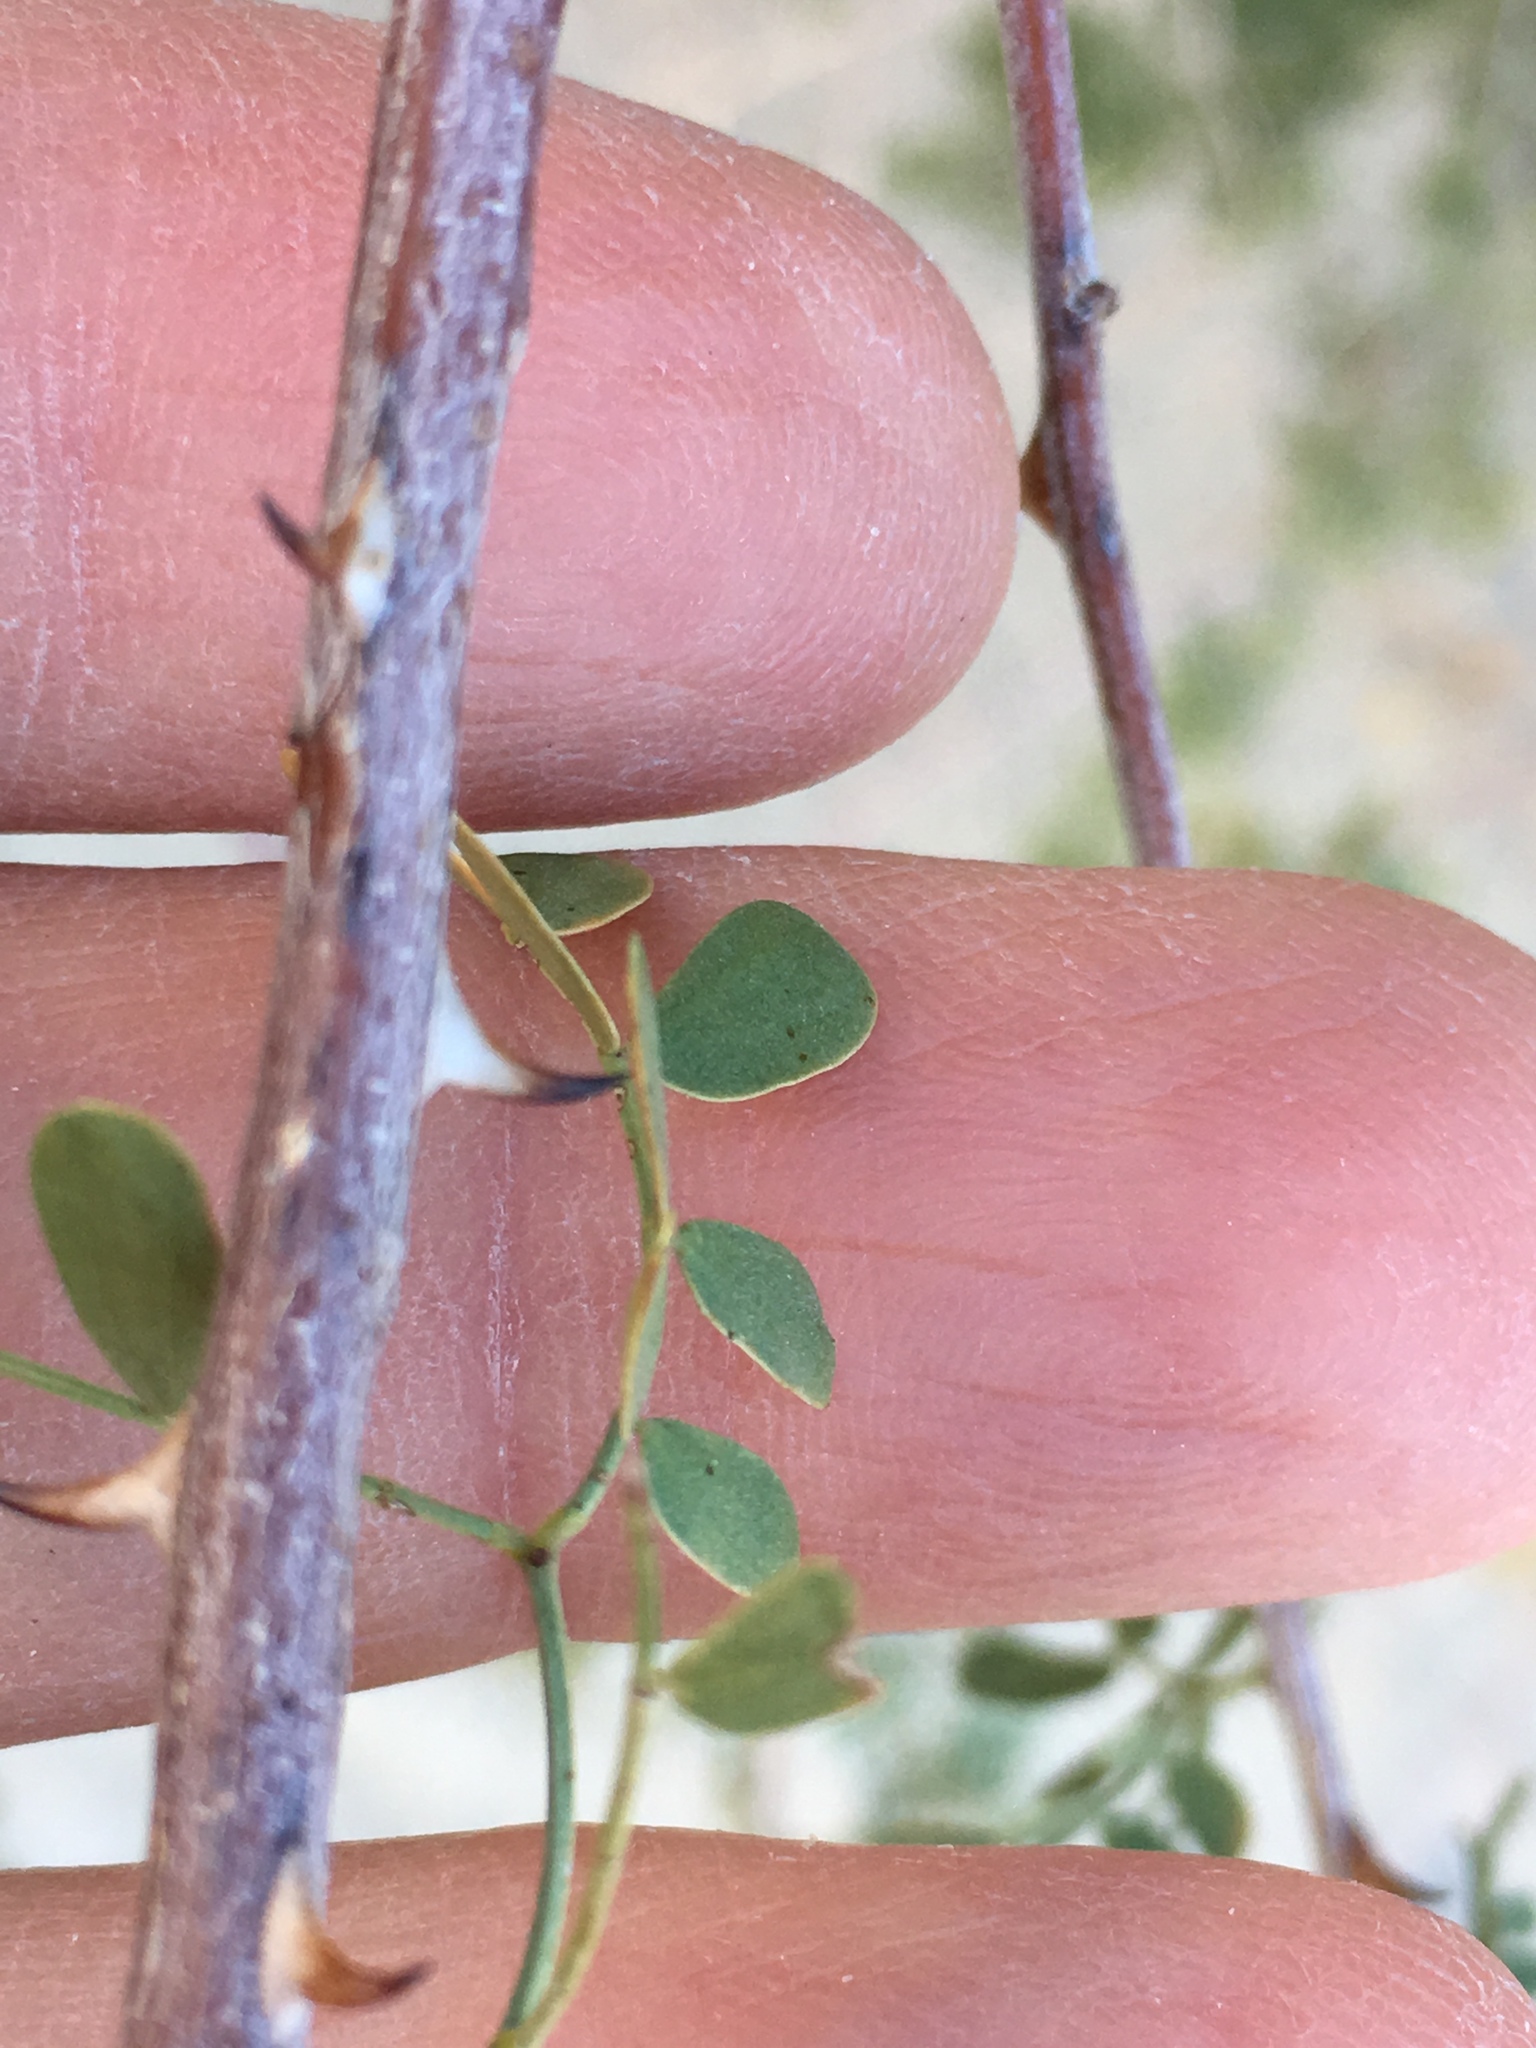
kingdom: Plantae
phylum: Tracheophyta
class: Magnoliopsida
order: Fabales
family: Fabaceae
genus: Senegalia
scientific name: Senegalia greggii
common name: Texas-mimosa
